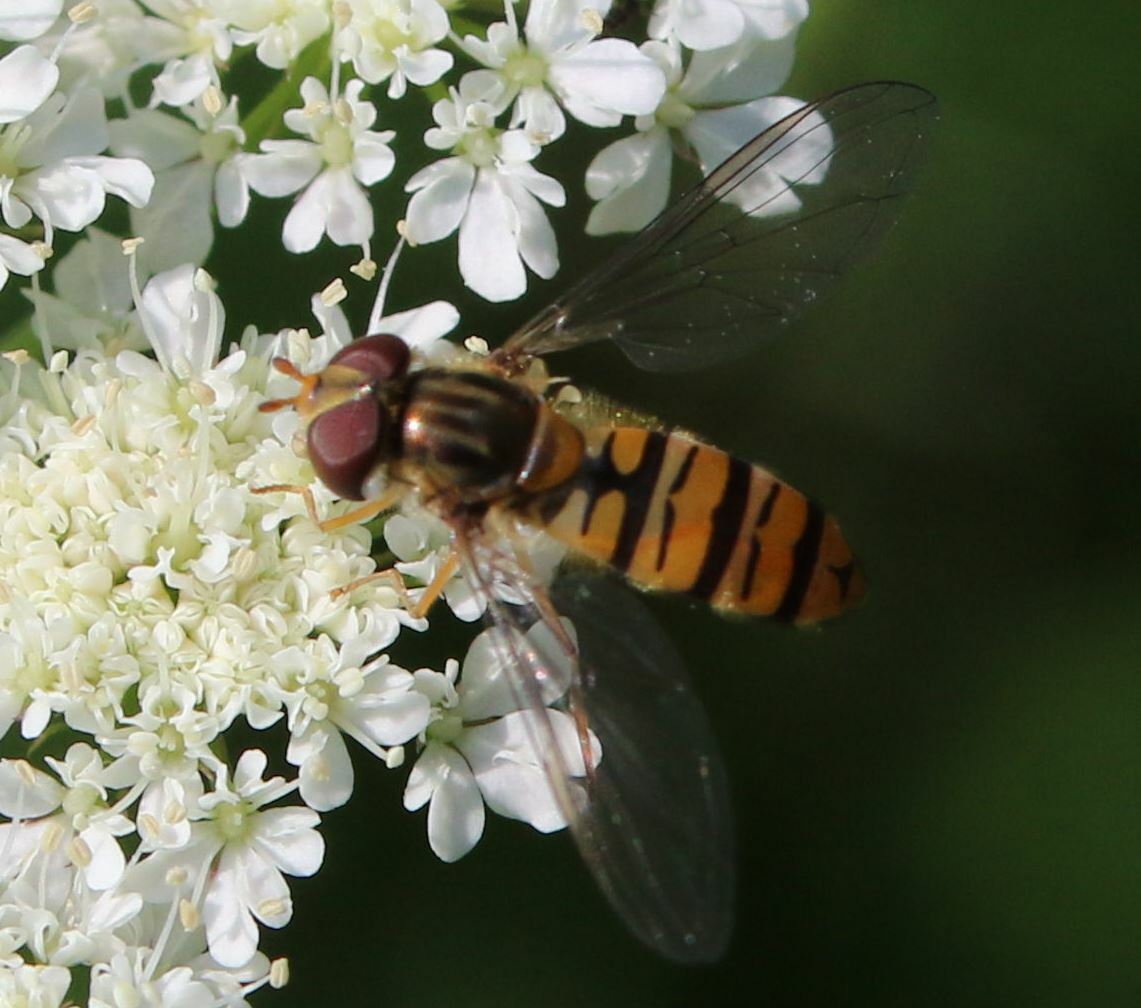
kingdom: Animalia
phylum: Arthropoda
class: Insecta
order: Diptera
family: Syrphidae
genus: Episyrphus
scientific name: Episyrphus balteatus
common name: Marmalade hoverfly
